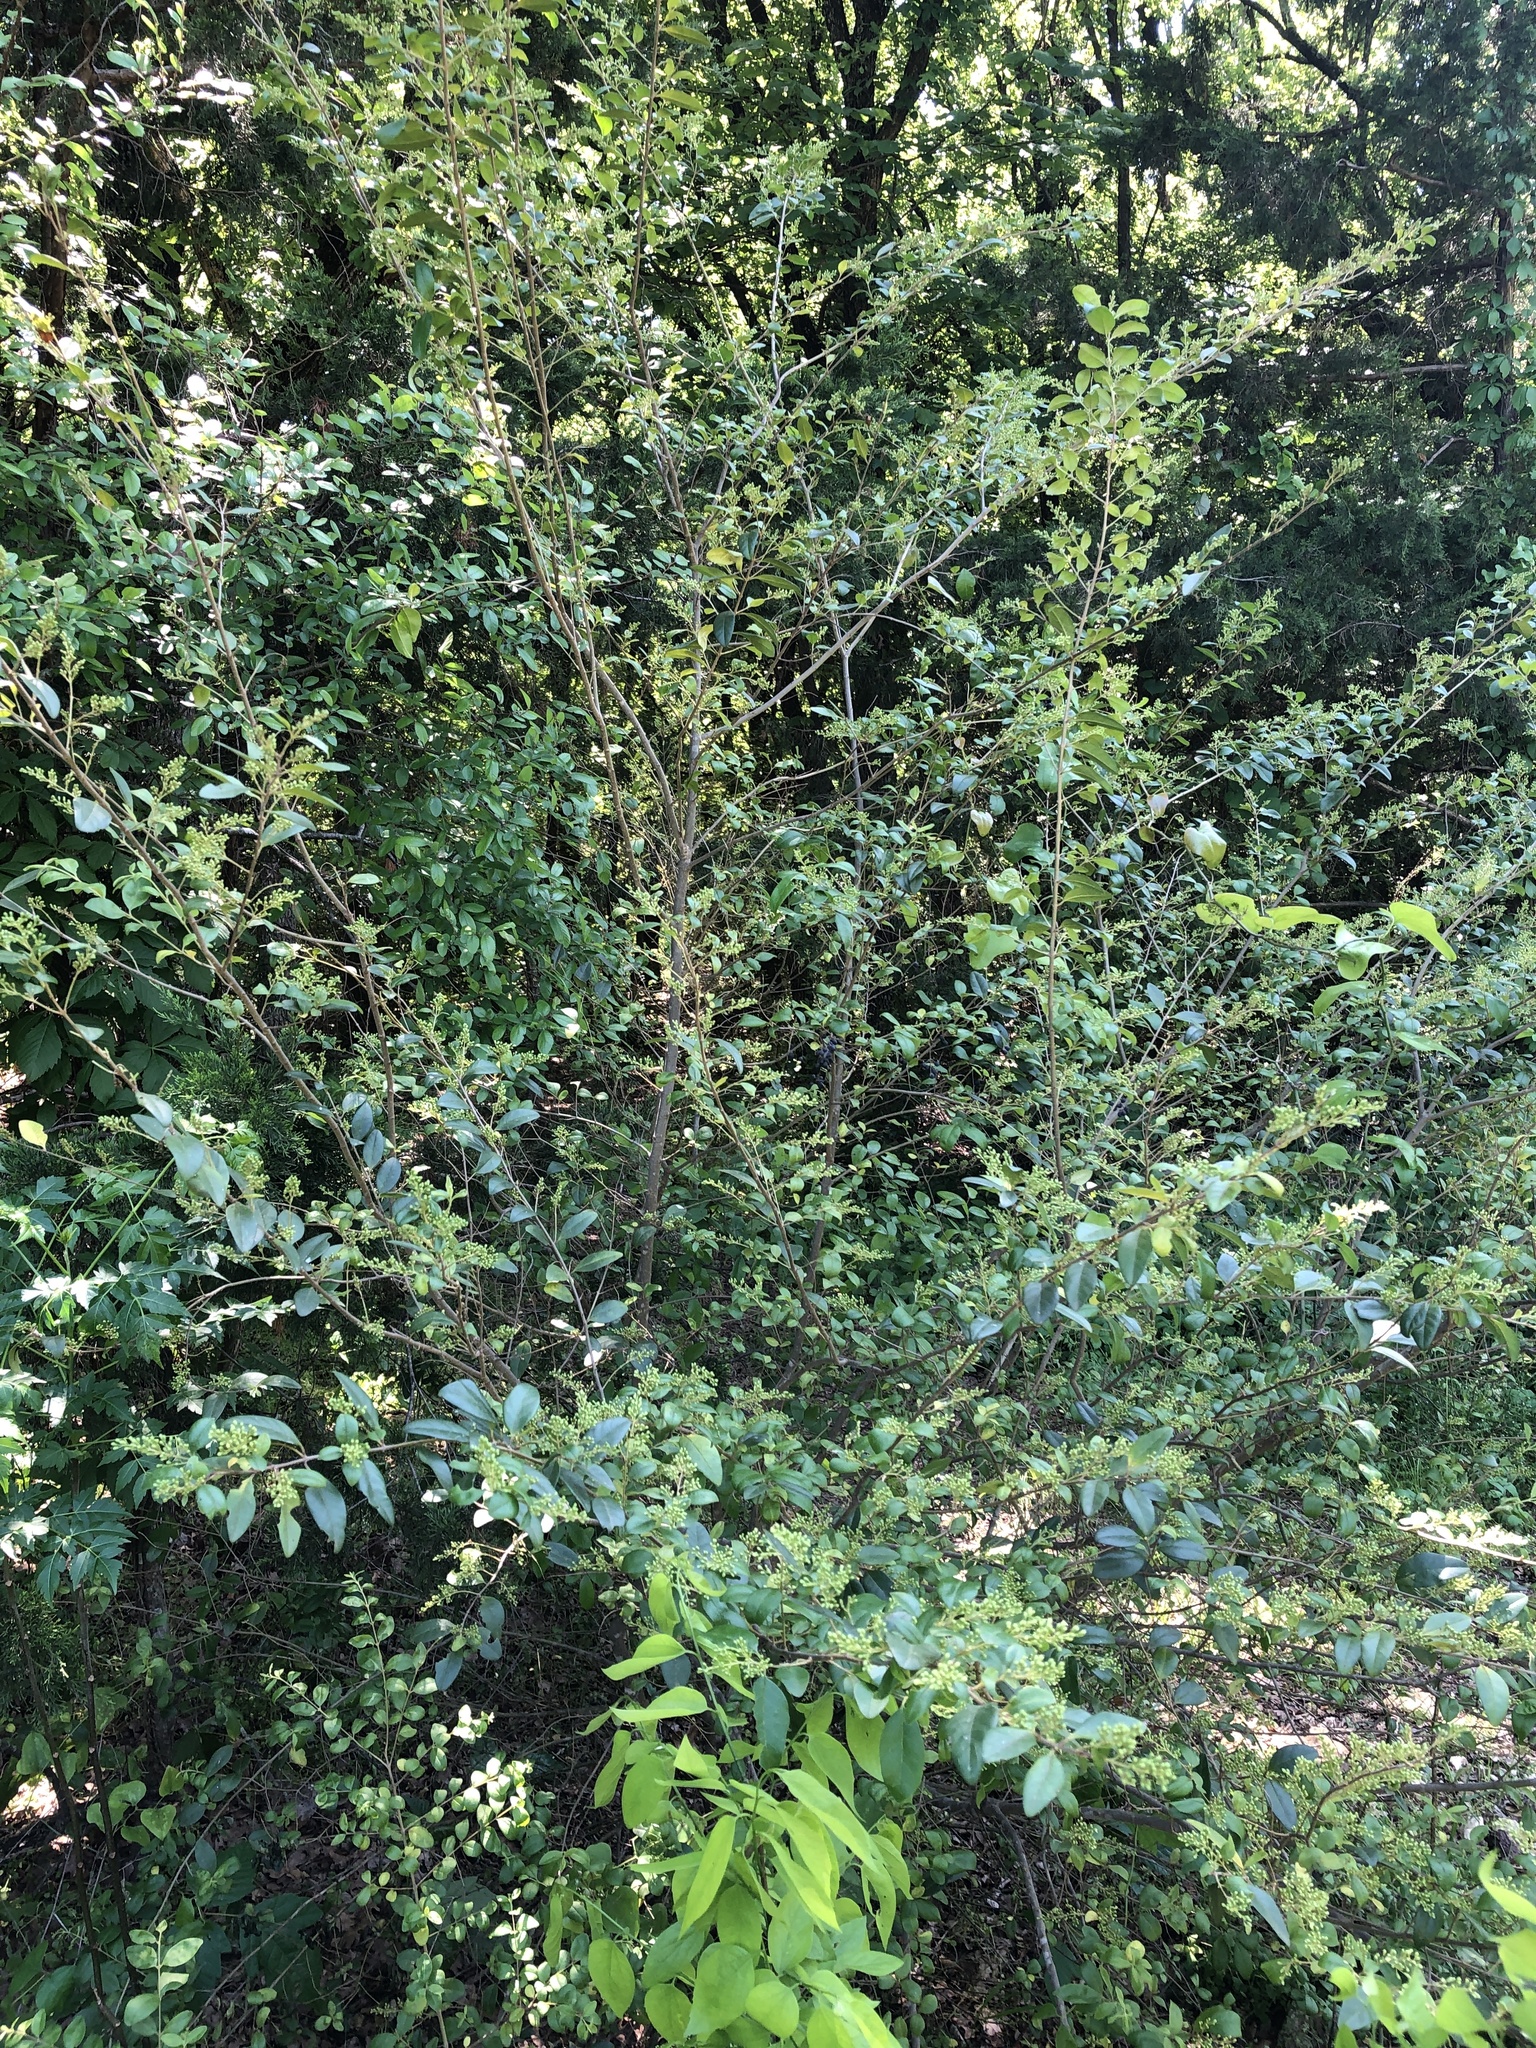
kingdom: Plantae
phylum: Tracheophyta
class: Magnoliopsida
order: Lamiales
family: Oleaceae
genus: Ligustrum
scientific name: Ligustrum sinense
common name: Chinese privet
